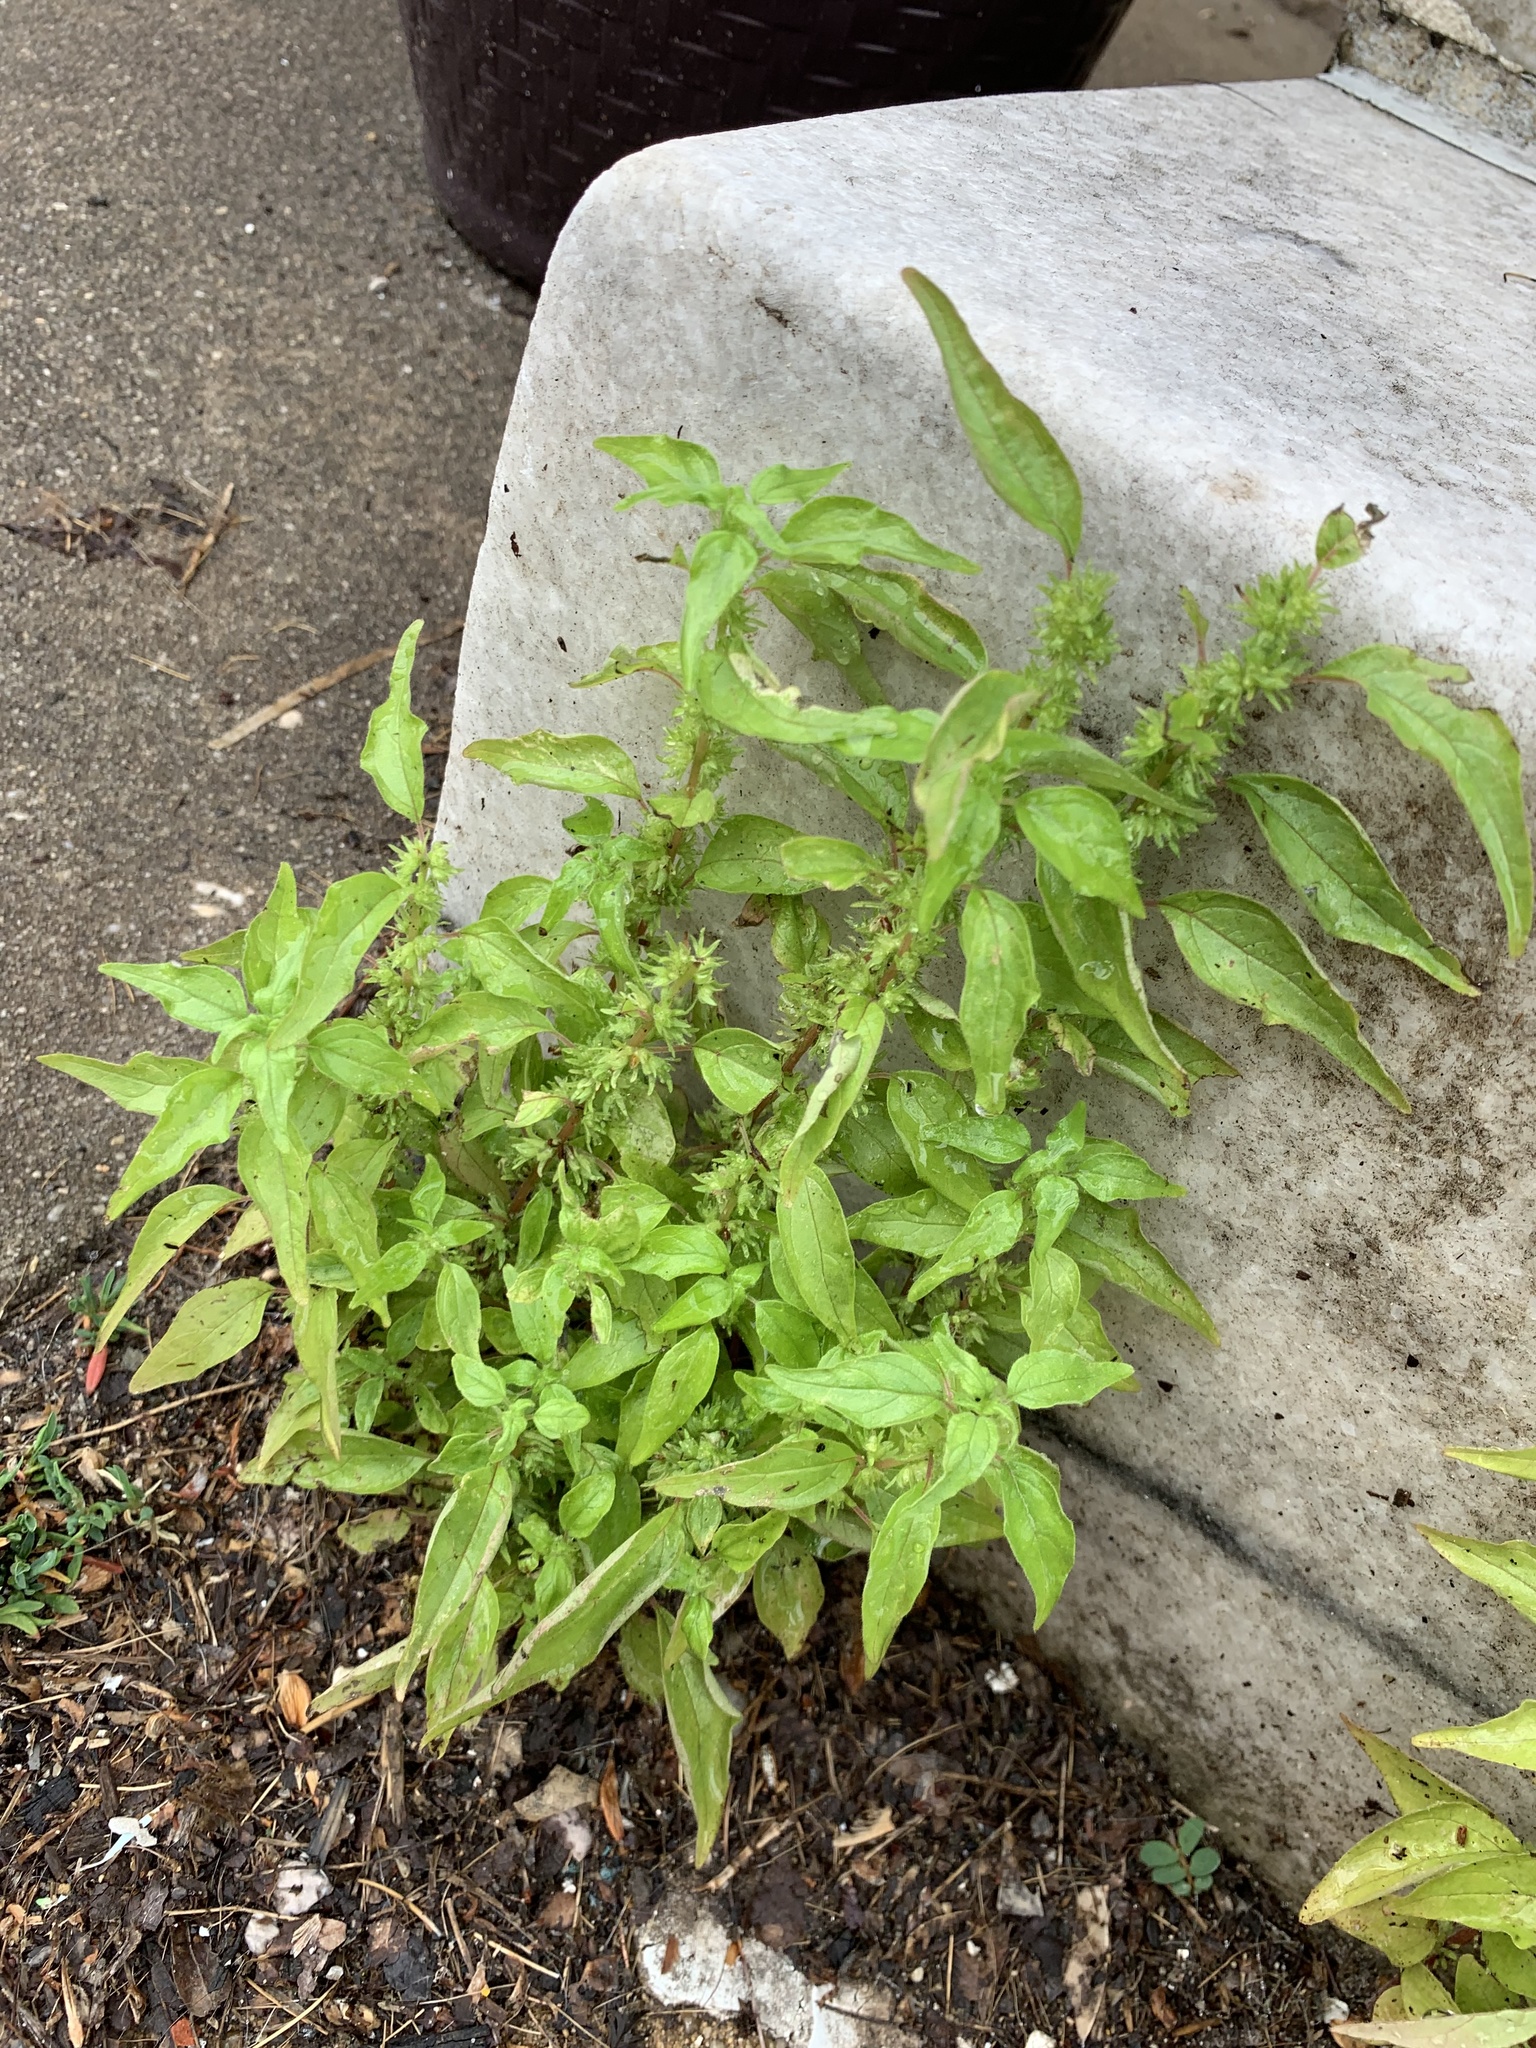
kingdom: Plantae
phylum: Tracheophyta
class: Magnoliopsida
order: Rosales
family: Urticaceae
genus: Parietaria
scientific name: Parietaria pensylvanica
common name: Pennsylvania pellitory
